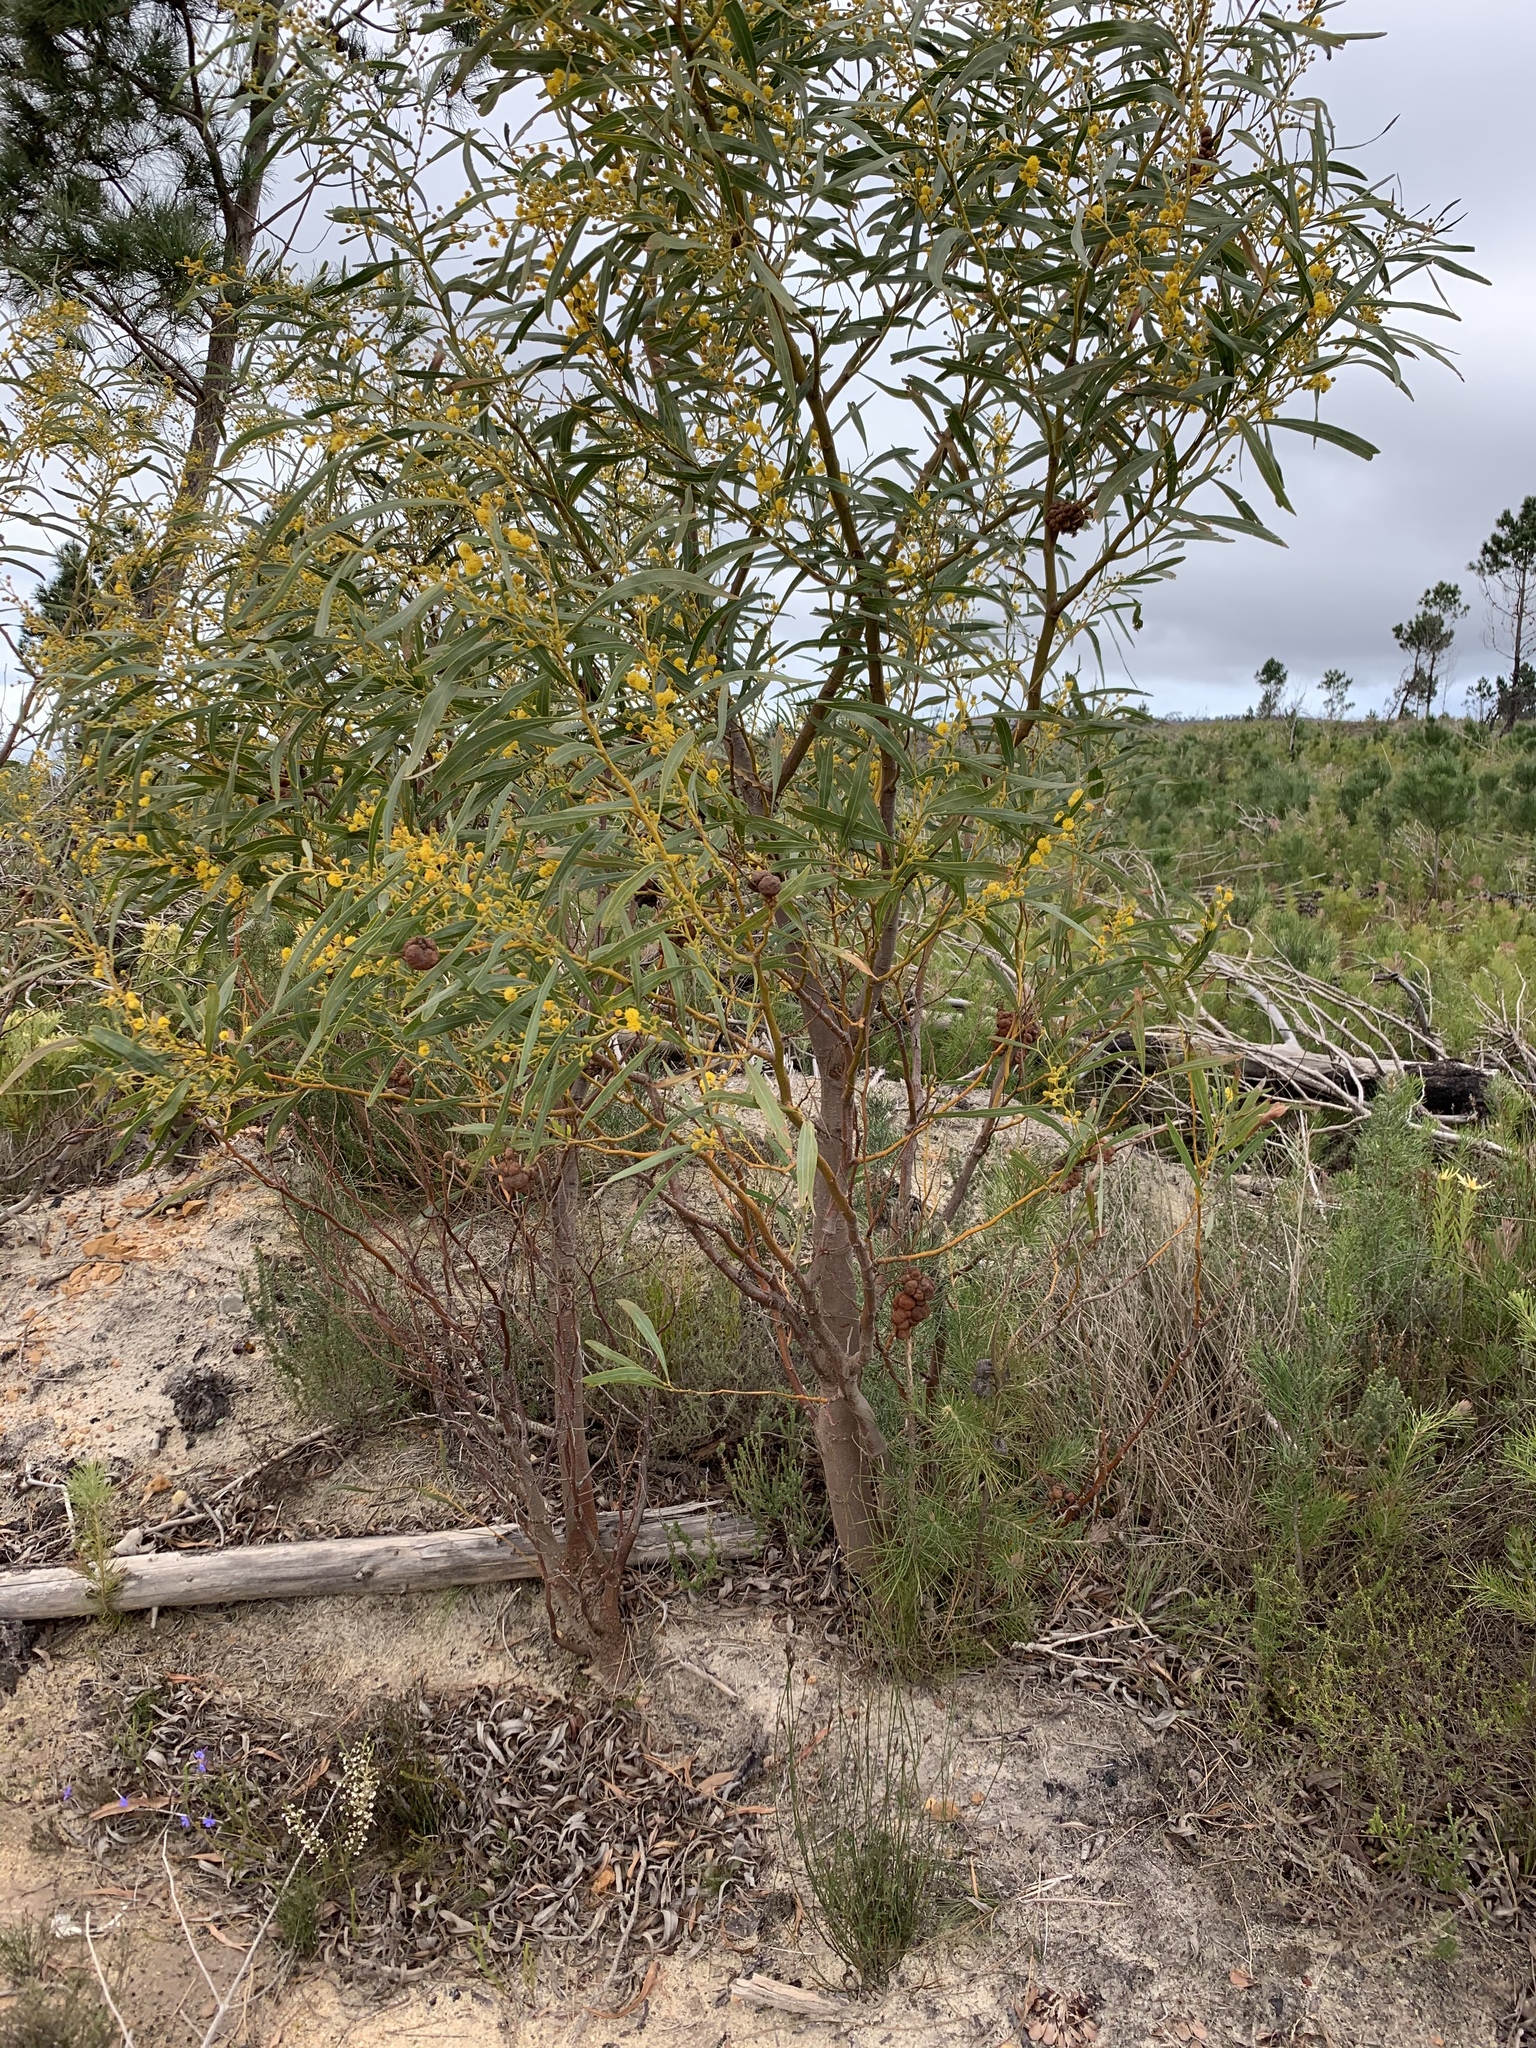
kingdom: Plantae
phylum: Tracheophyta
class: Magnoliopsida
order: Fabales
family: Fabaceae
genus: Acacia
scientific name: Acacia saligna
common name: Orange wattle
